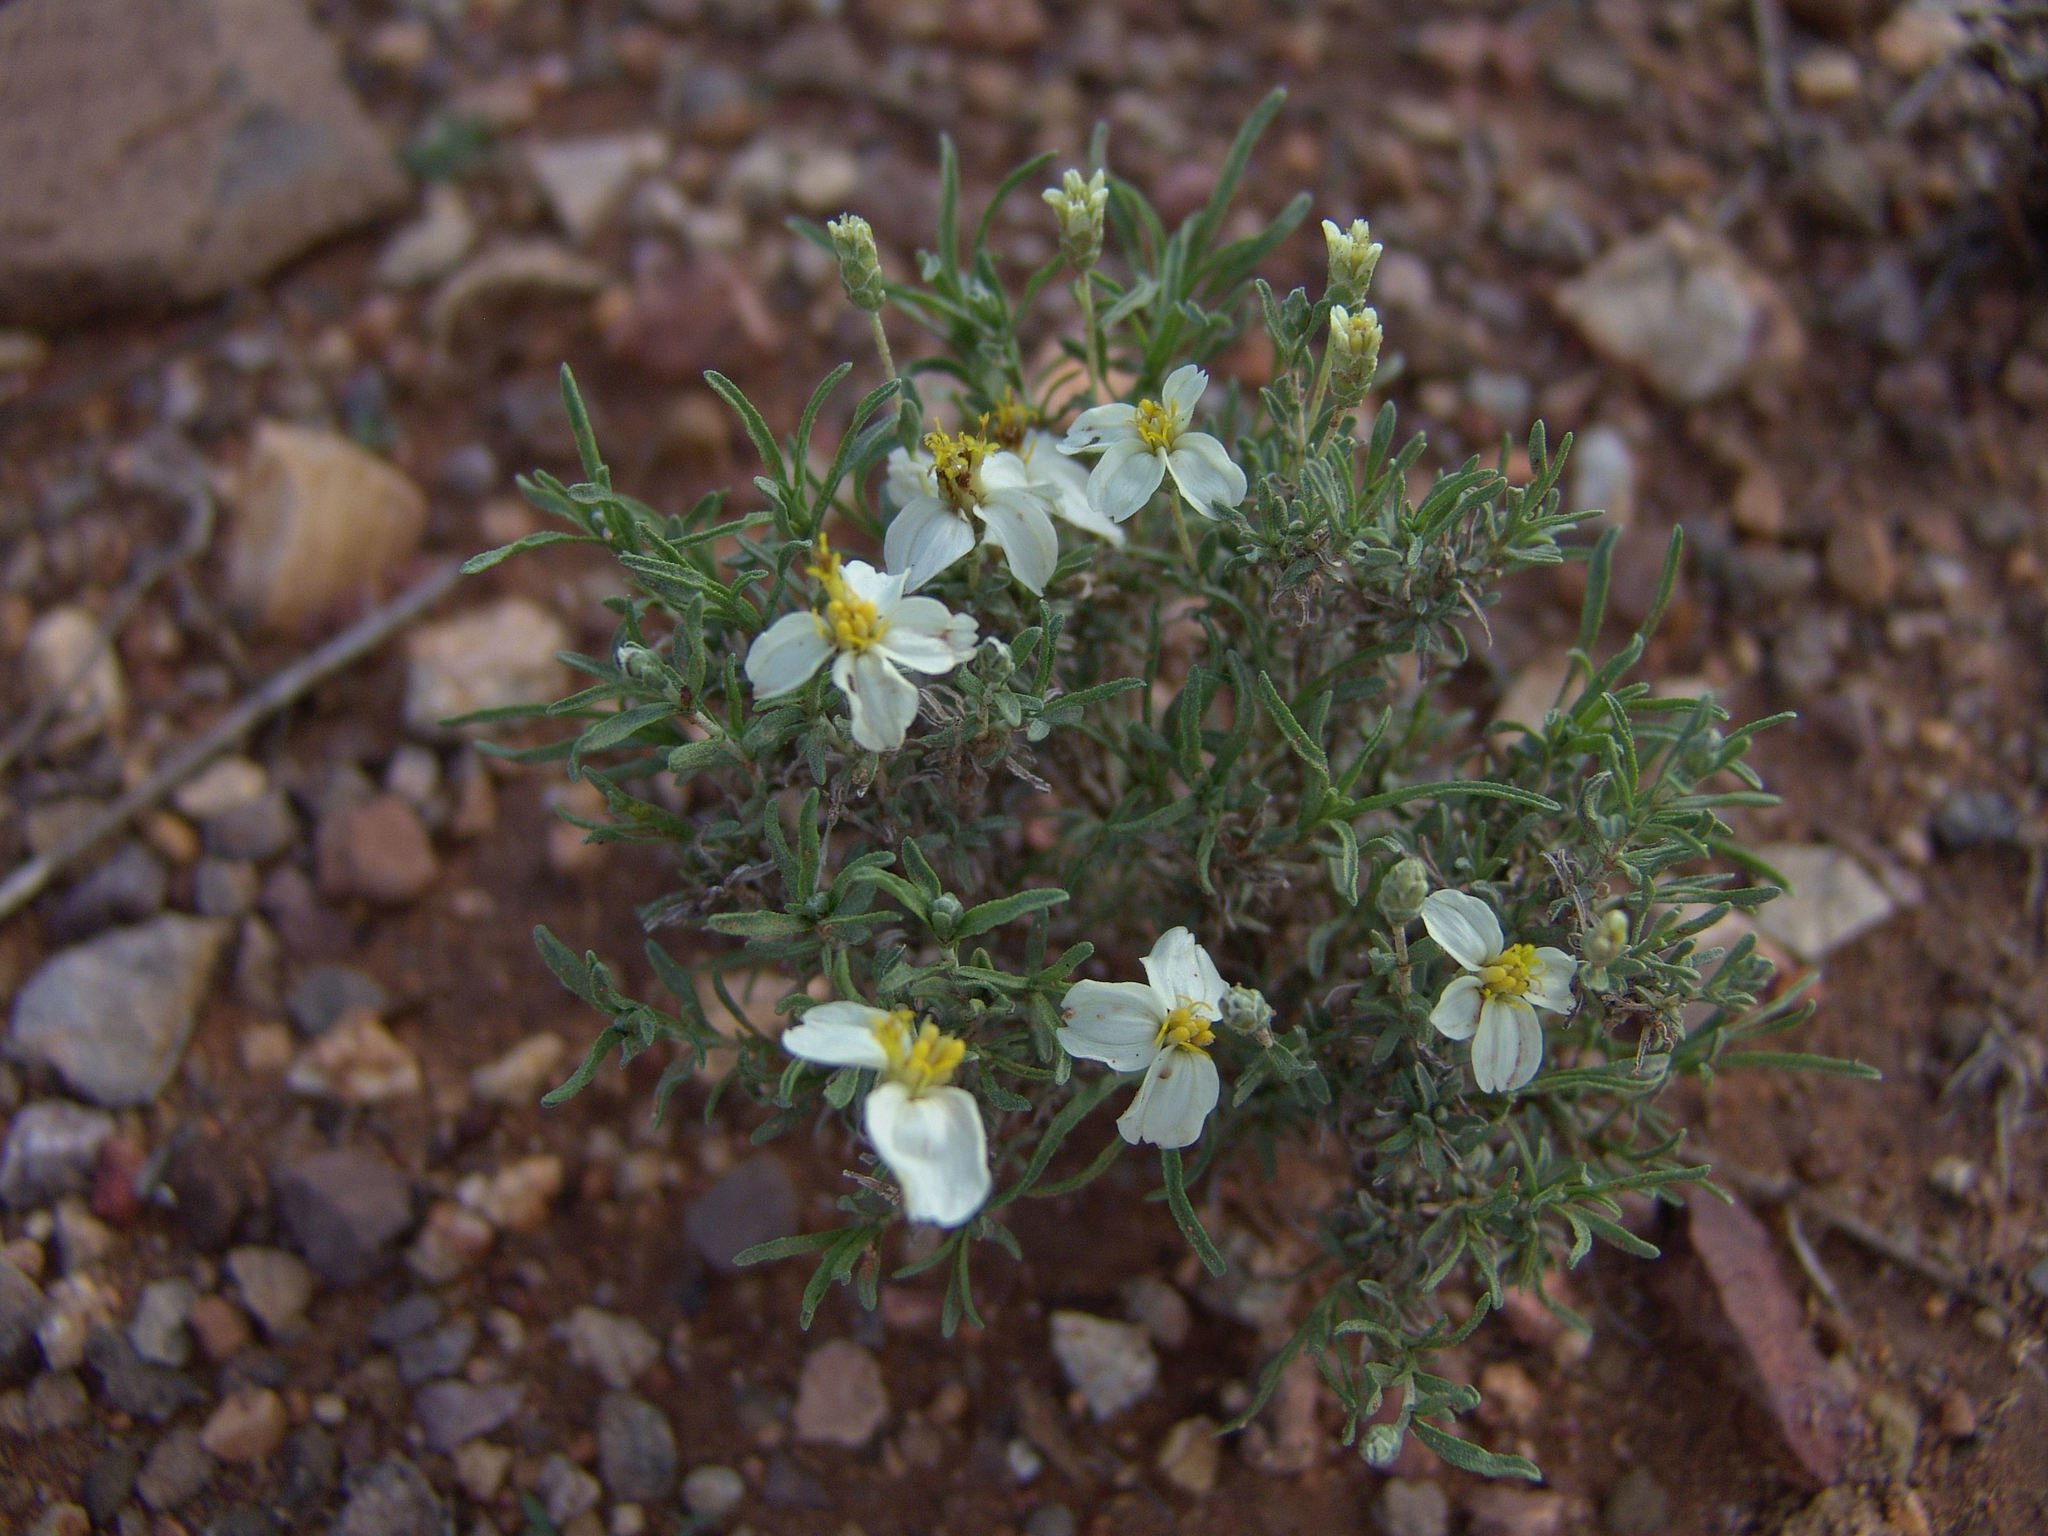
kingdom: Plantae
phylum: Tracheophyta
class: Magnoliopsida
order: Asterales
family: Asteraceae
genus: Zinnia
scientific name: Zinnia acerosa
